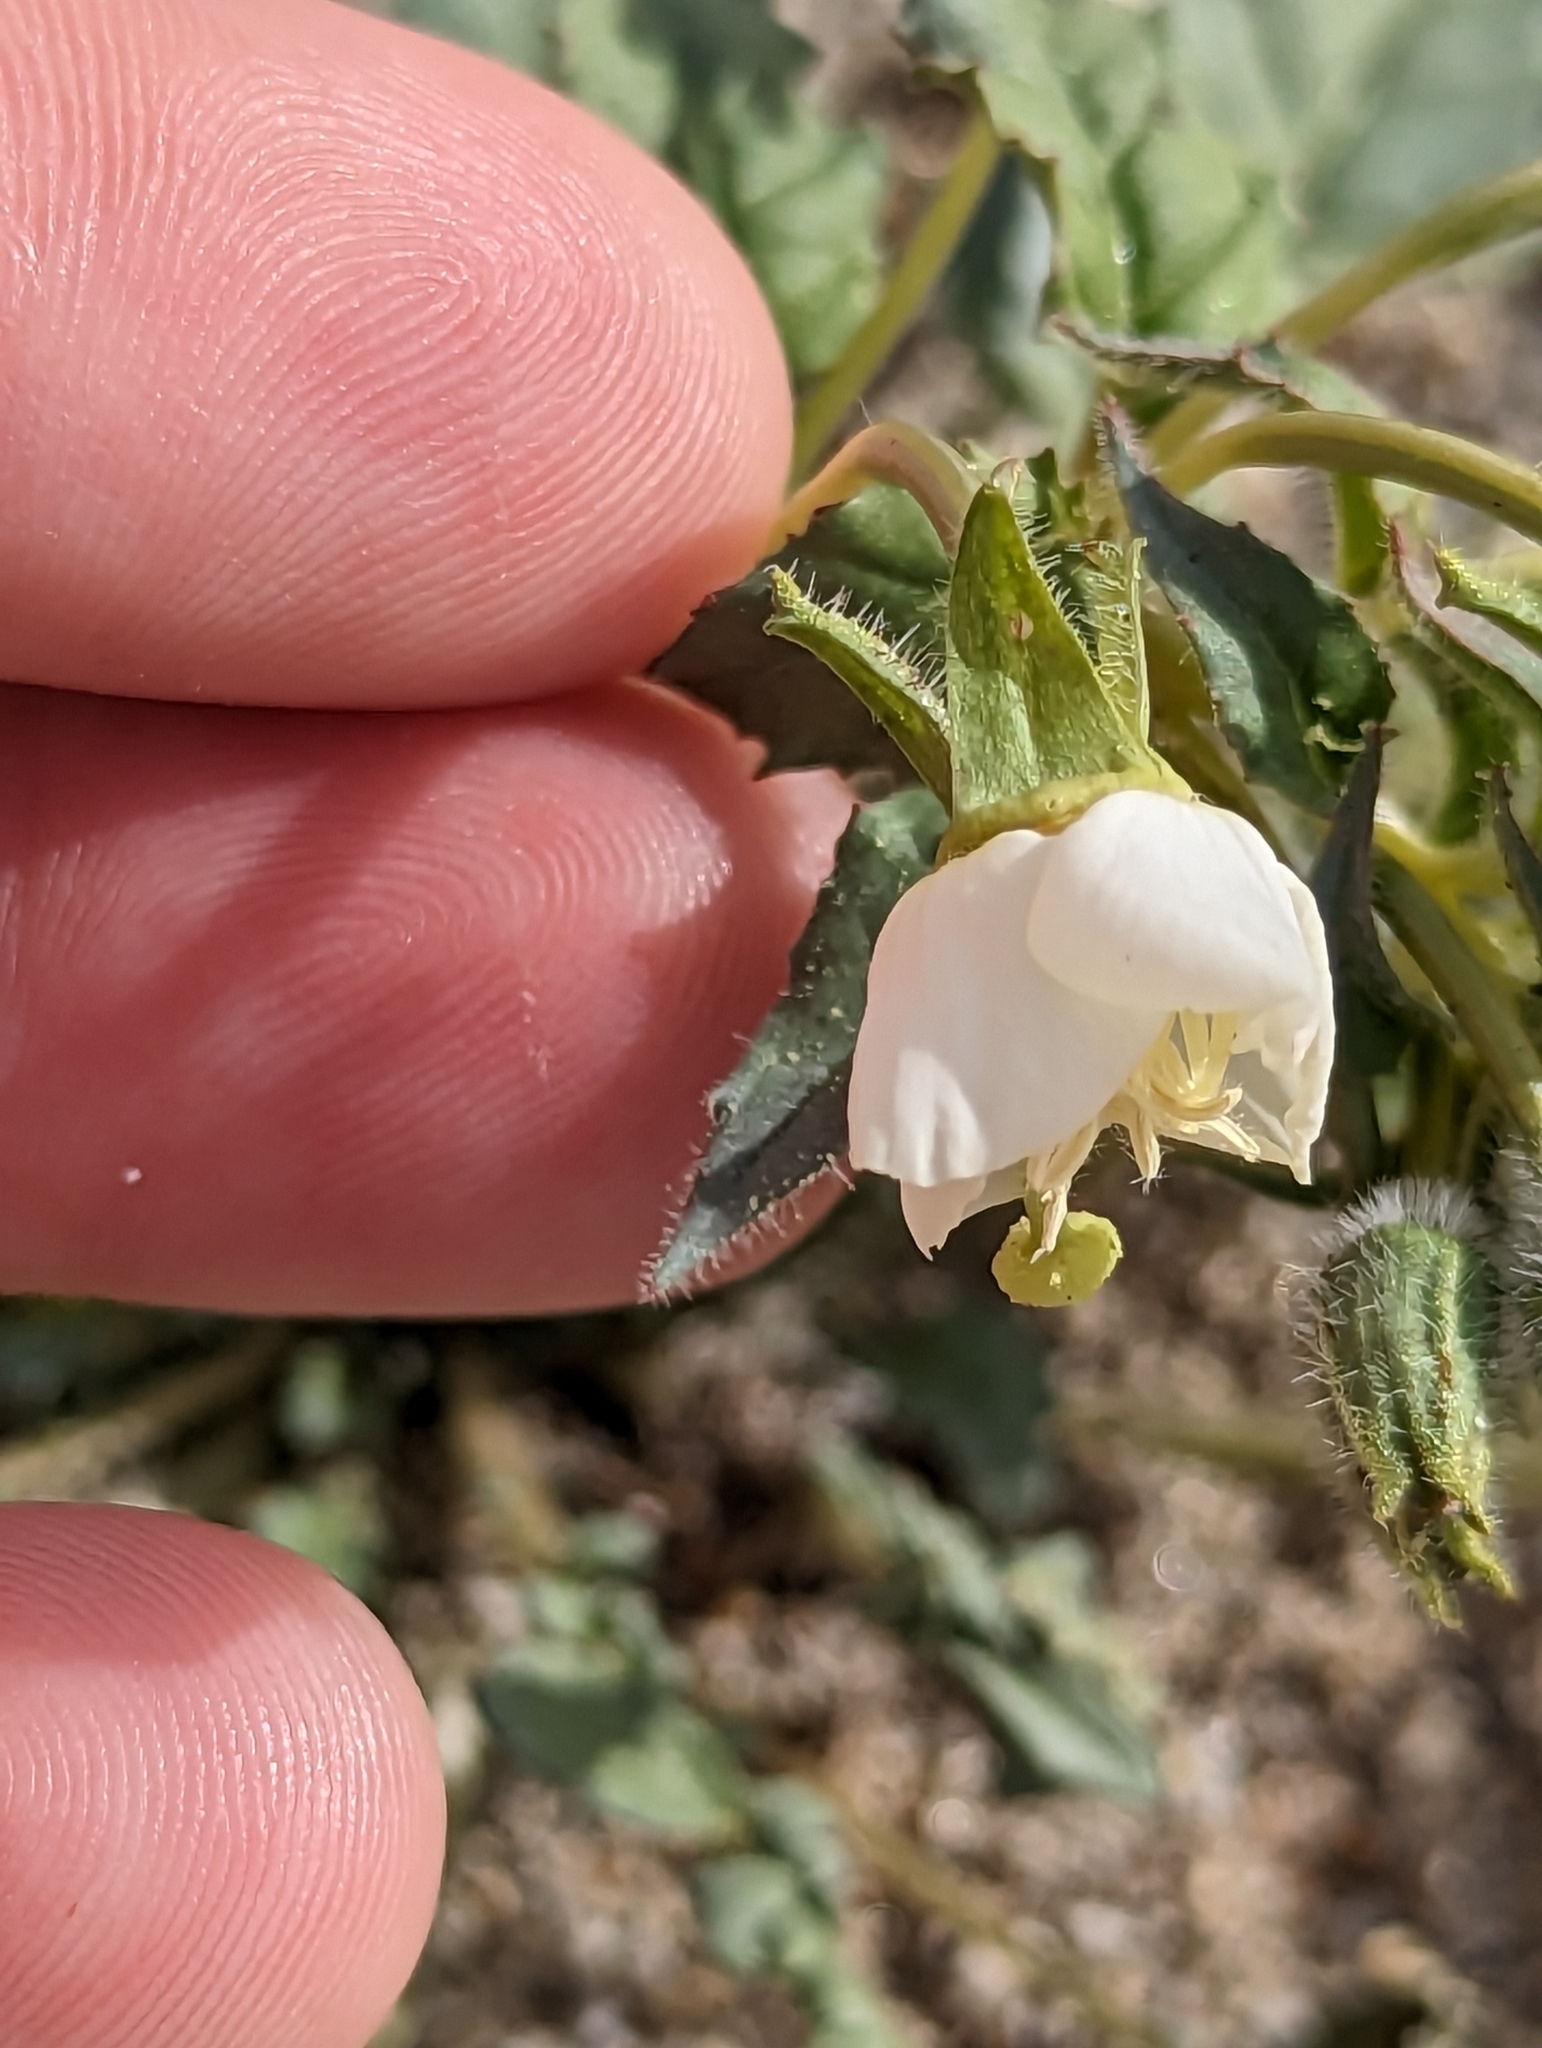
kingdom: Plantae
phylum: Tracheophyta
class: Magnoliopsida
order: Myrtales
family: Onagraceae
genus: Chylismia
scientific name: Chylismia claviformis
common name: Browneyes
